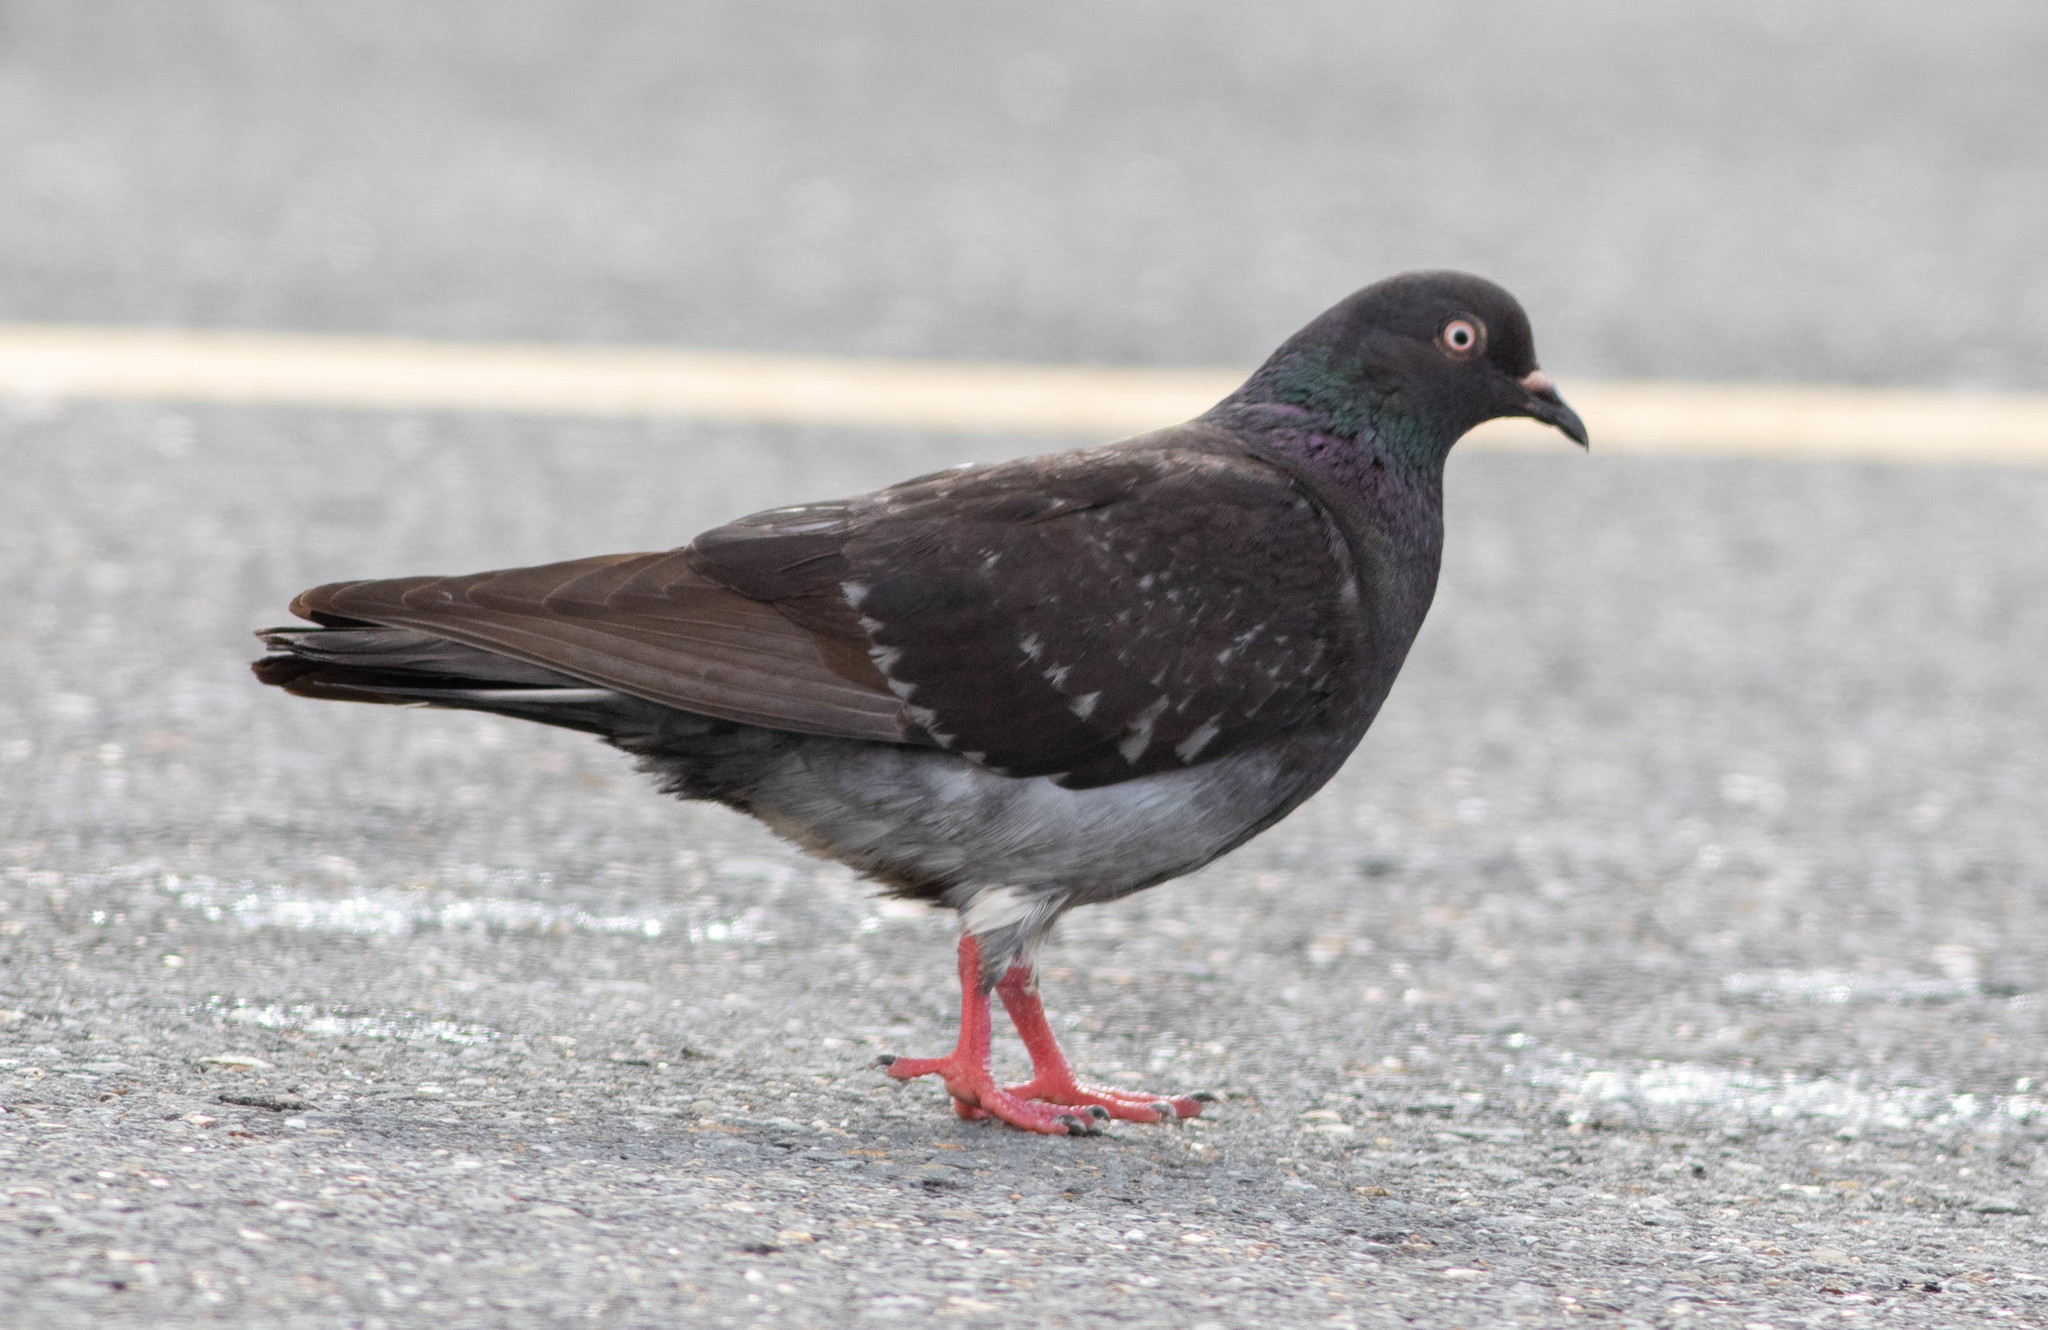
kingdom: Animalia
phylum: Chordata
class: Aves
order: Columbiformes
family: Columbidae
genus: Columba
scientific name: Columba livia
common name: Rock pigeon
